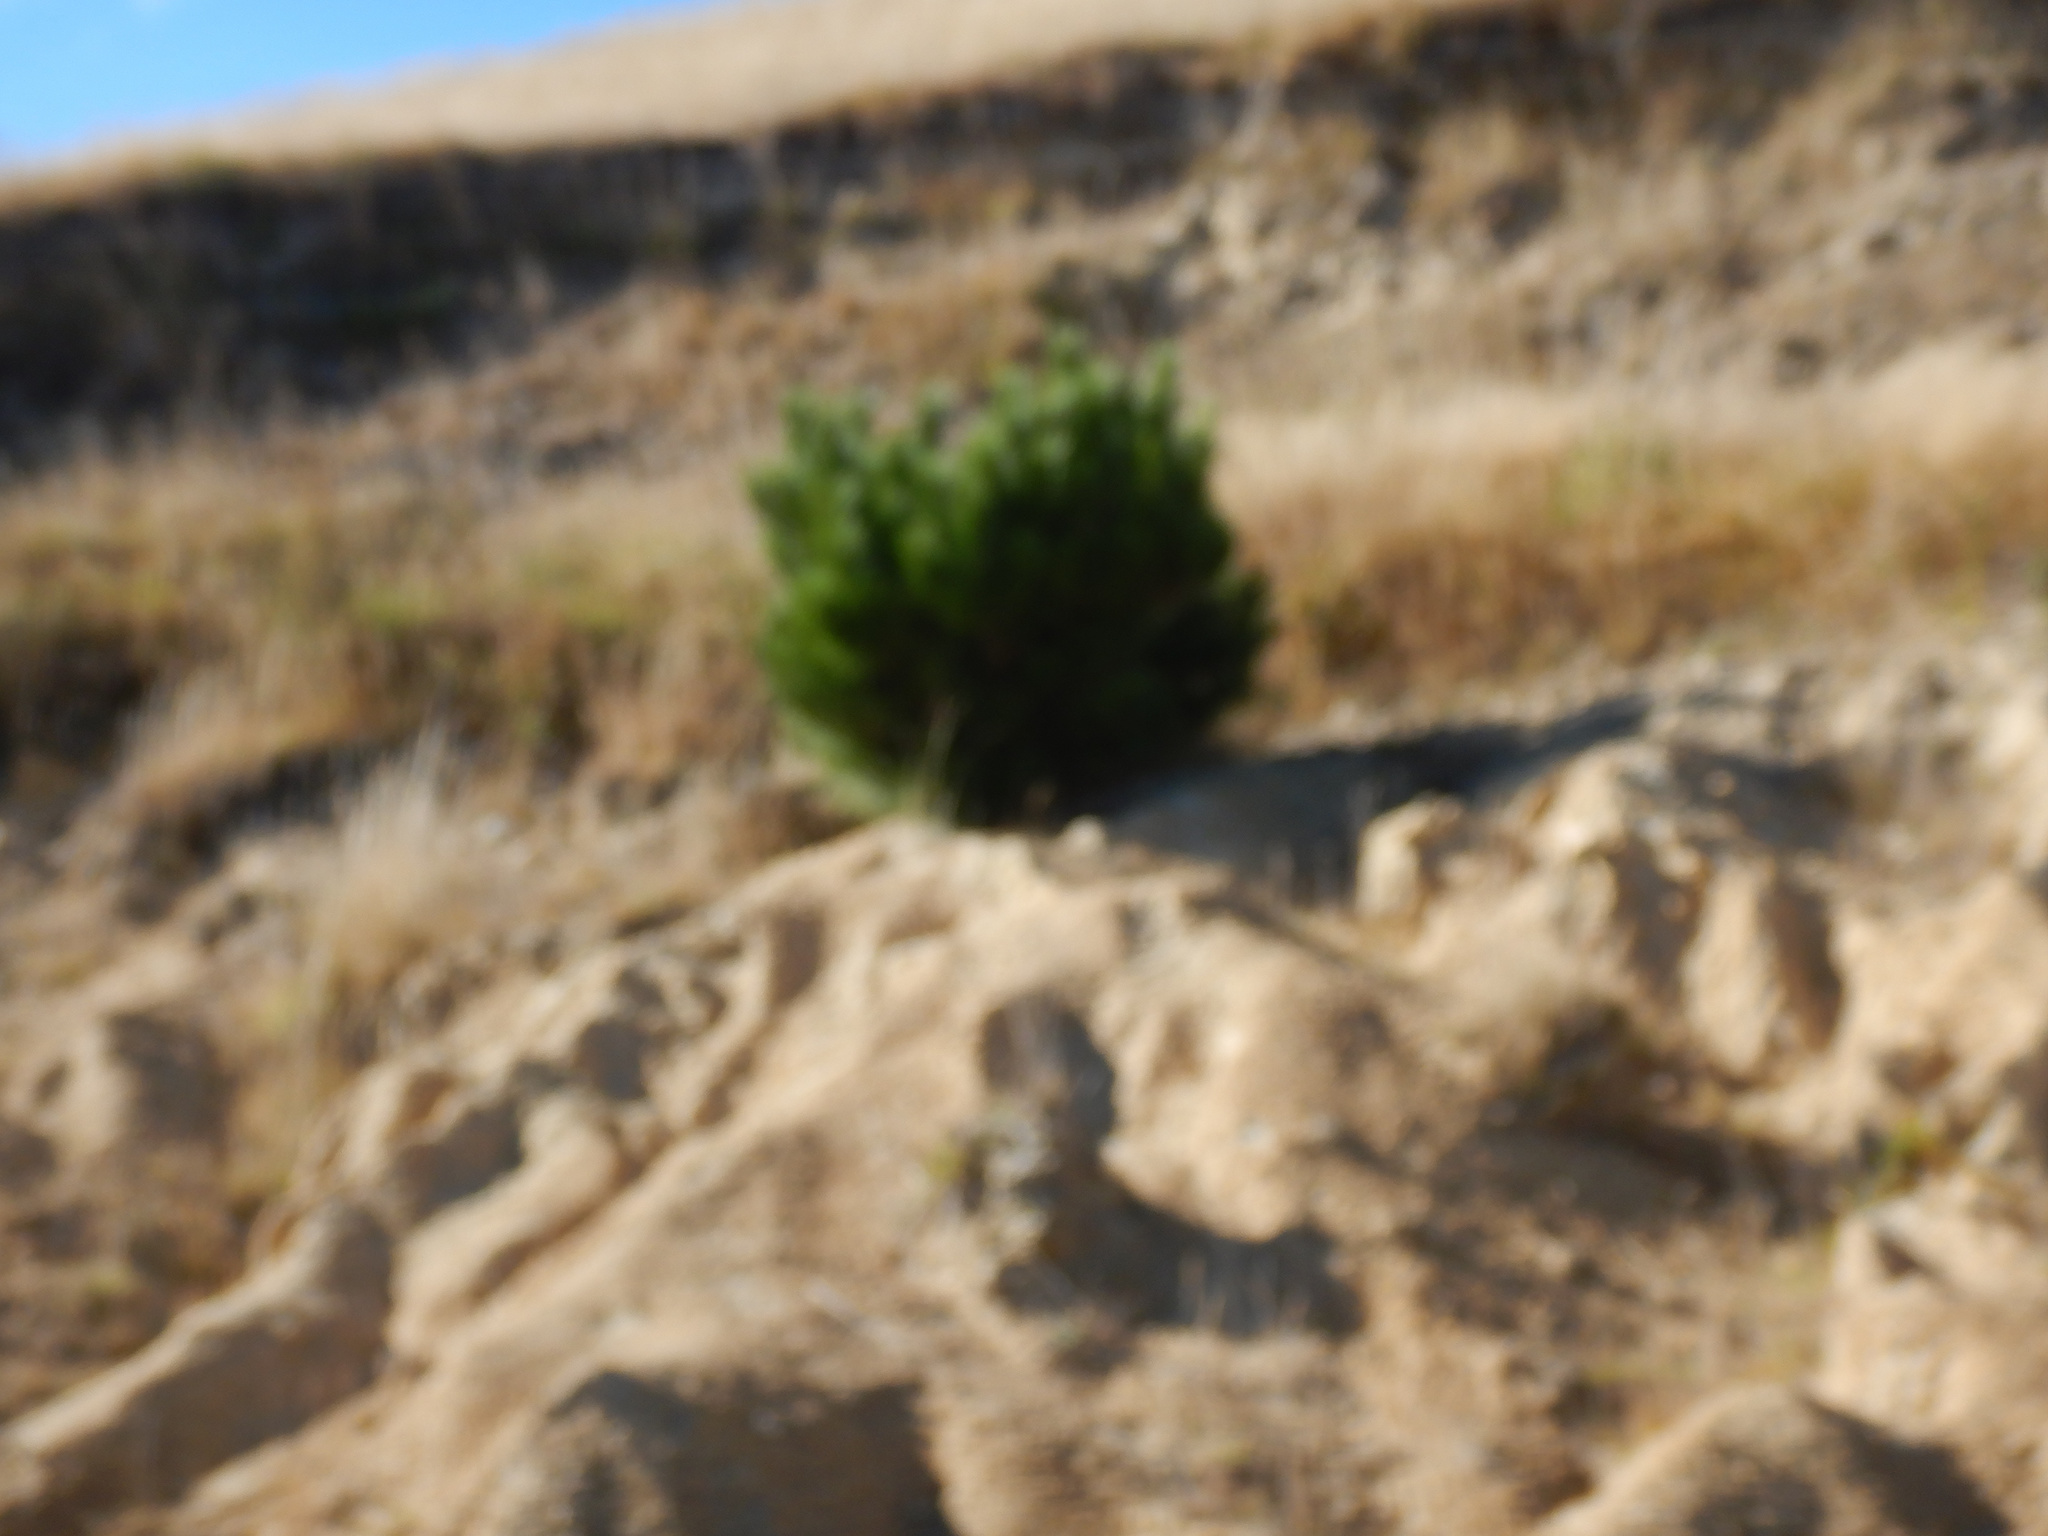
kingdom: Plantae
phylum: Tracheophyta
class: Pinopsida
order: Pinales
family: Pinaceae
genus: Pinus
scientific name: Pinus
